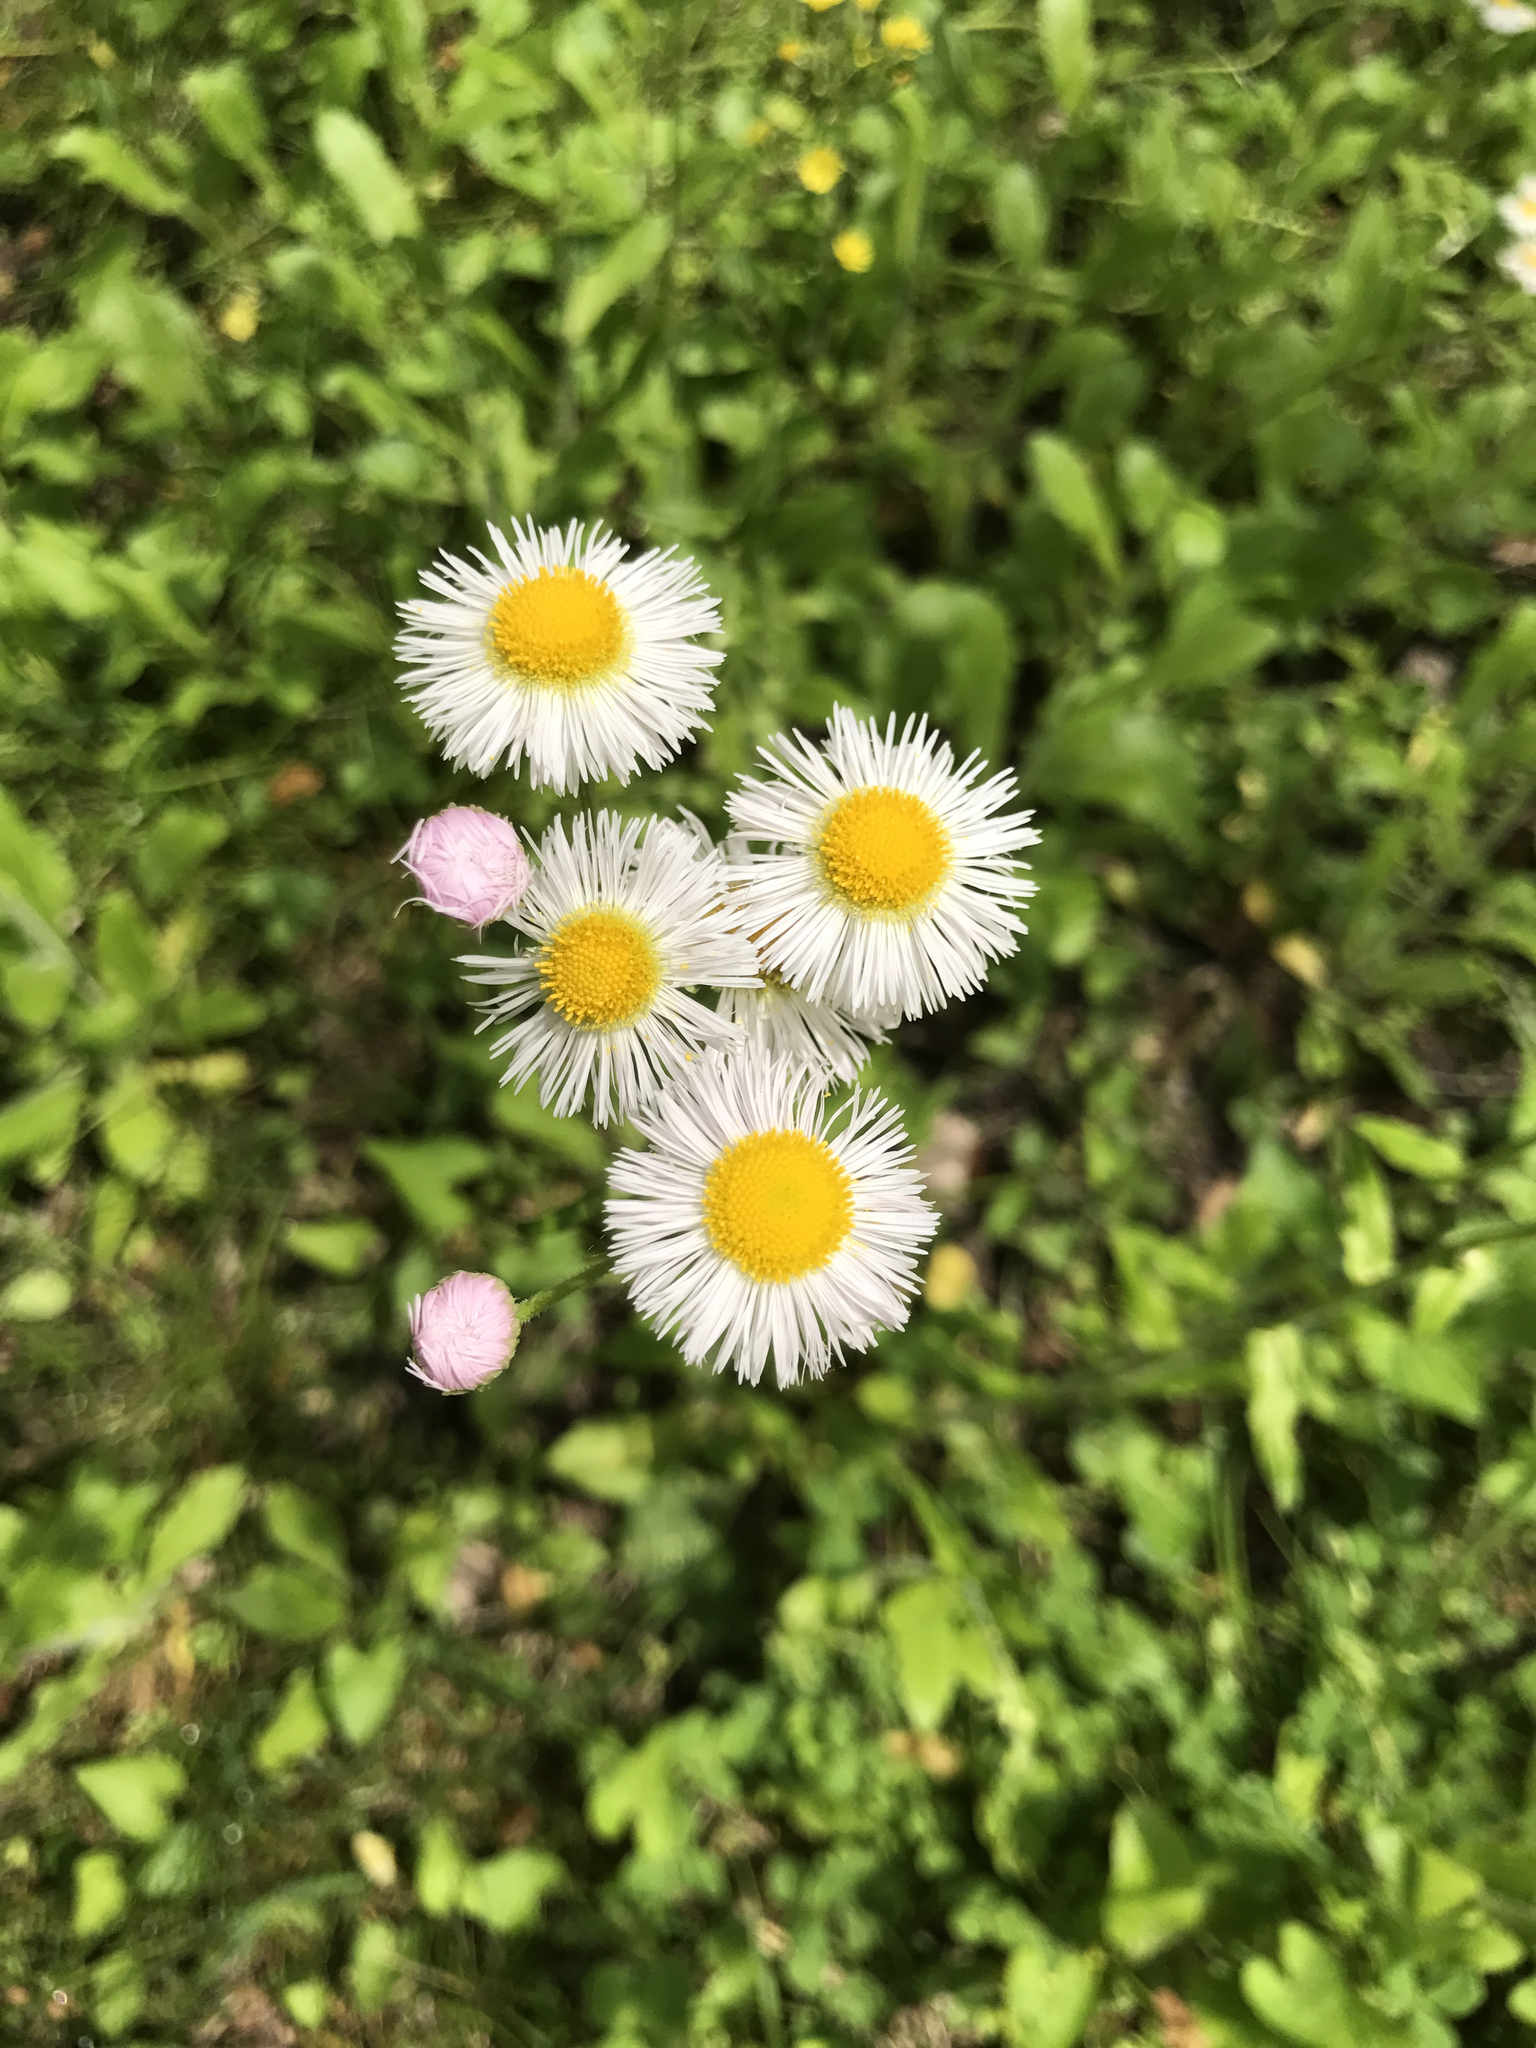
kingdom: Plantae
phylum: Tracheophyta
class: Magnoliopsida
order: Asterales
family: Asteraceae
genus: Erigeron
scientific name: Erigeron philadelphicus
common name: Robin's-plantain
